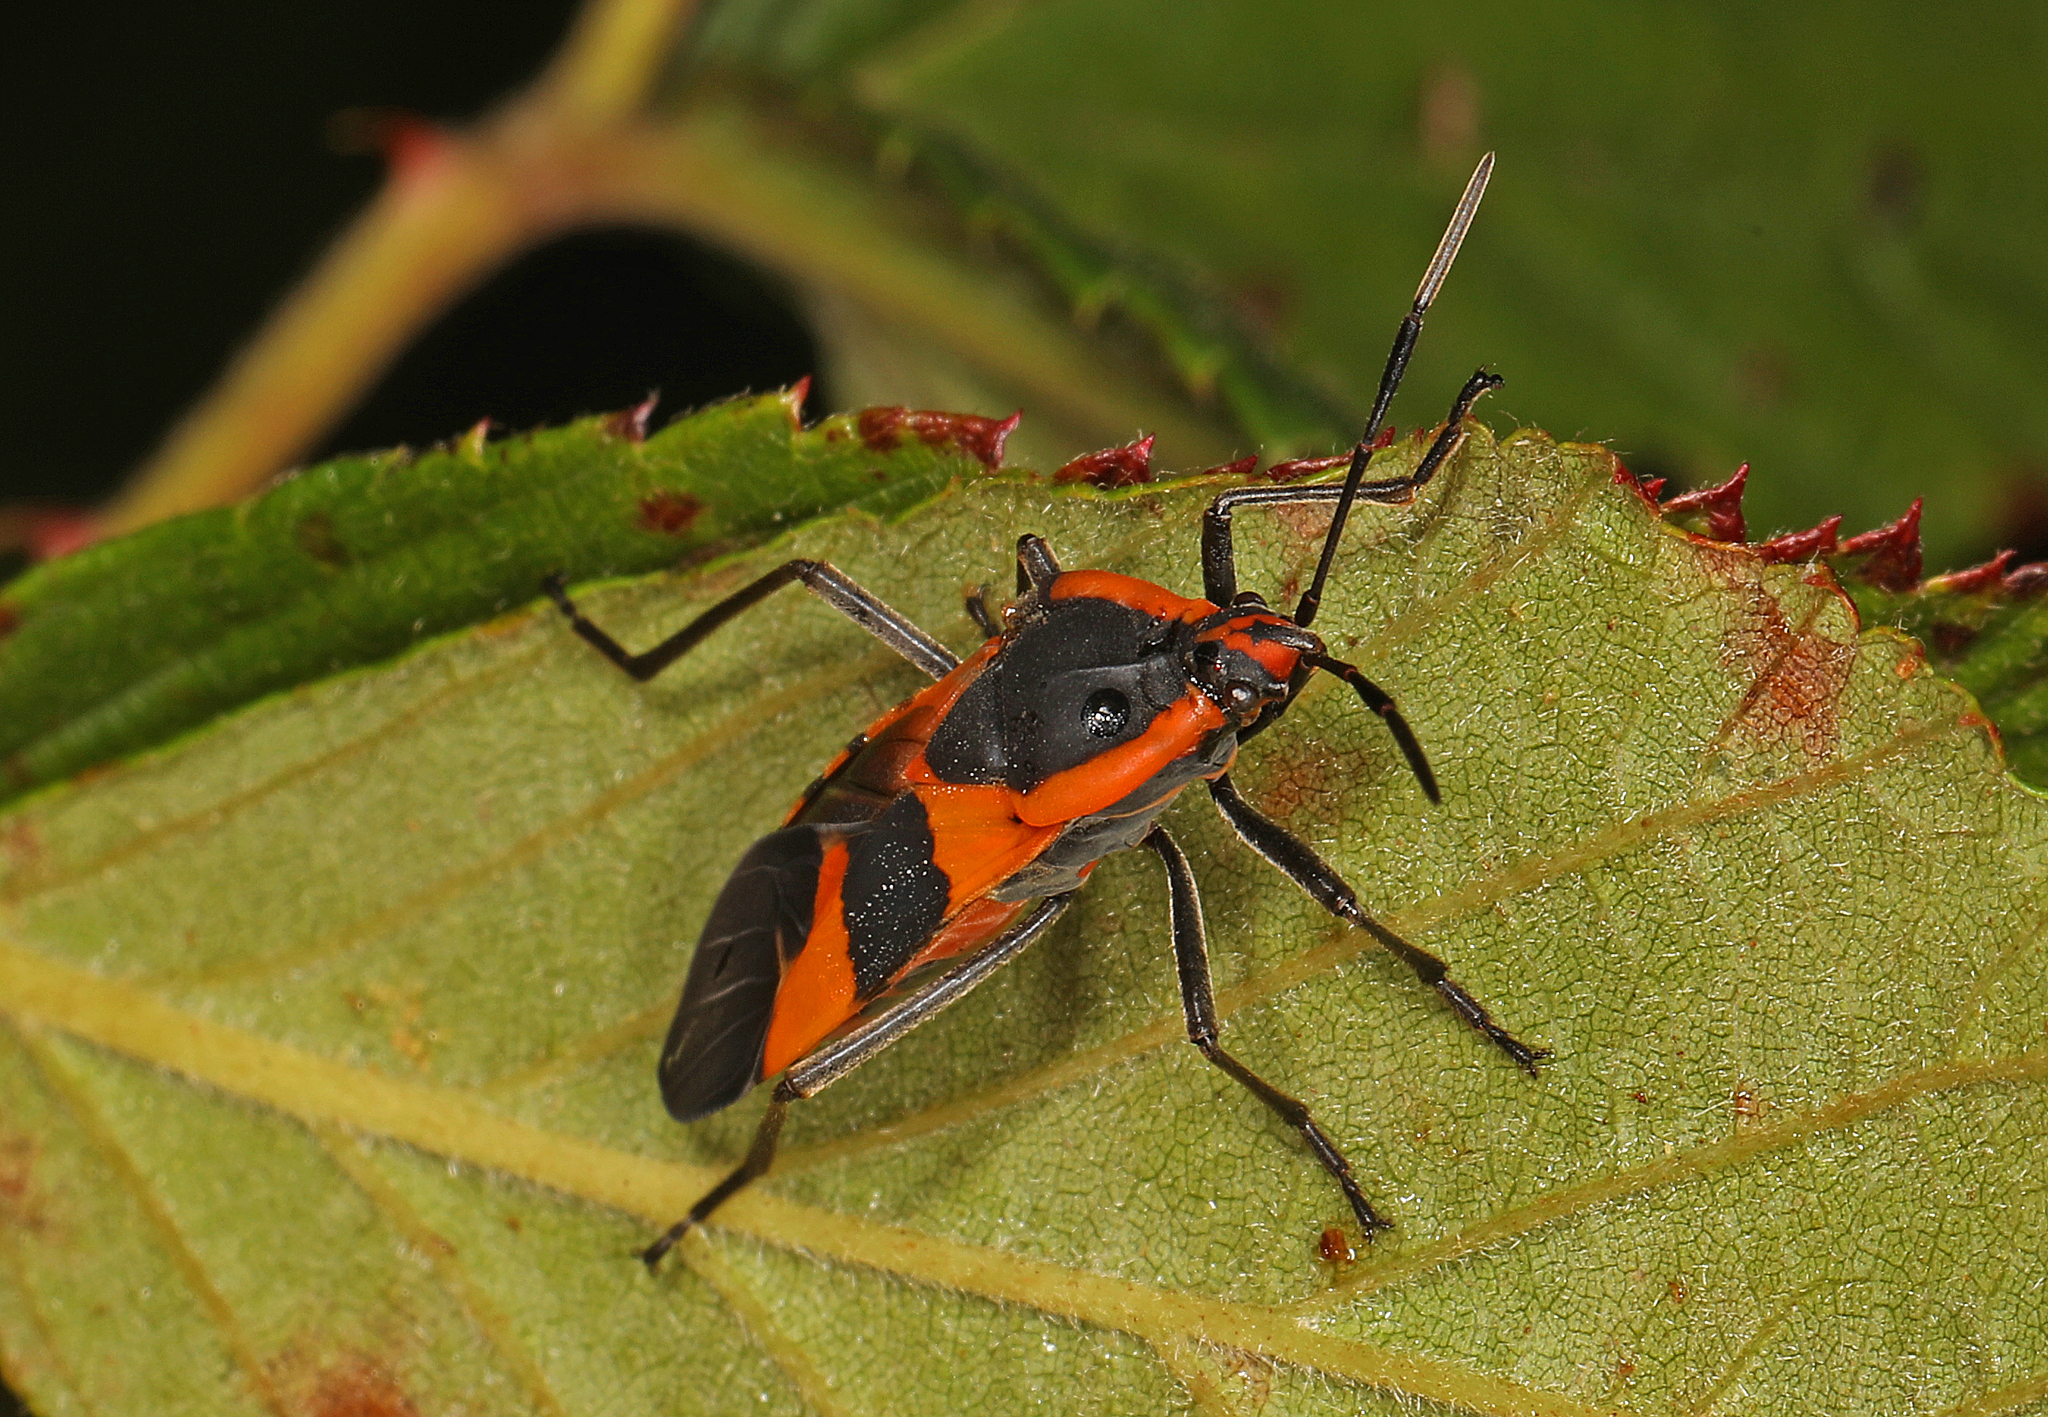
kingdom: Animalia
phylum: Arthropoda
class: Insecta
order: Hemiptera
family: Lygaeidae
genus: Oncopeltus
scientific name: Oncopeltus fasciatus
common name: Large milkweed bug
